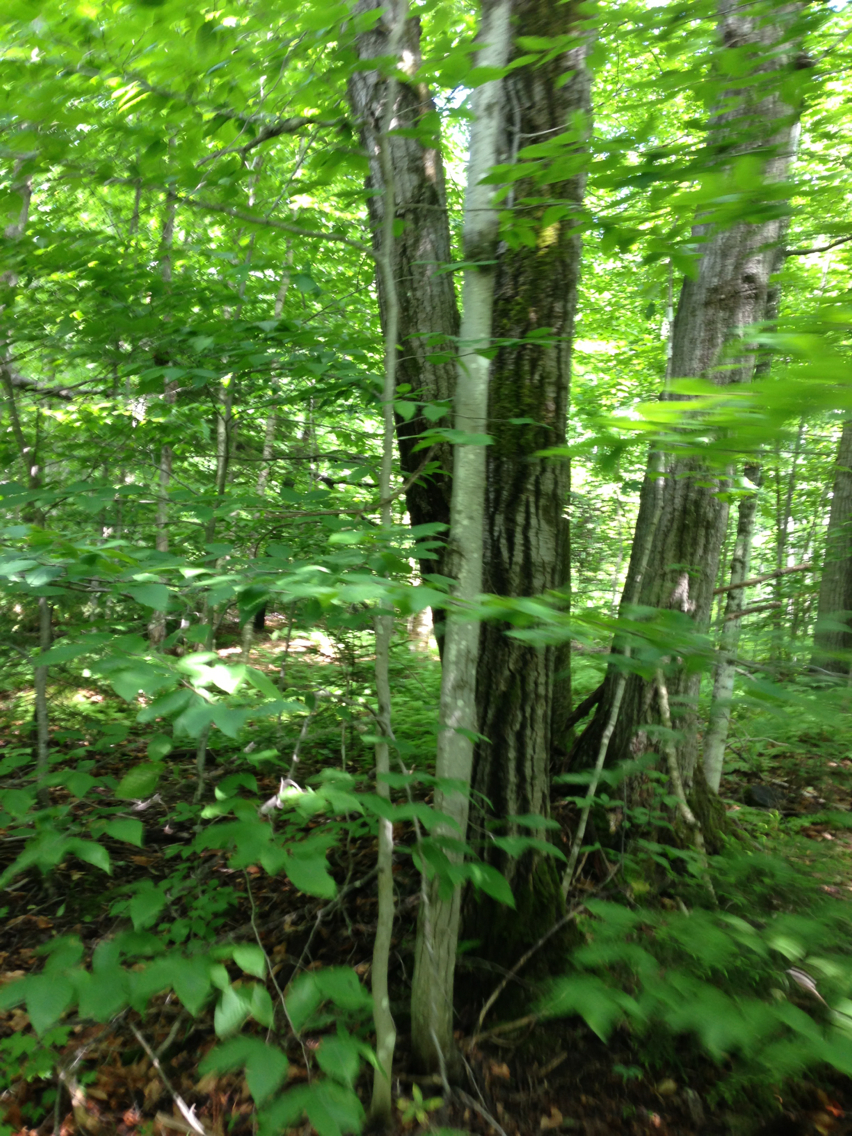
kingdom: Plantae
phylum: Tracheophyta
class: Magnoliopsida
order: Fagales
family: Fagaceae
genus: Fagus
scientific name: Fagus grandifolia
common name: American beech
